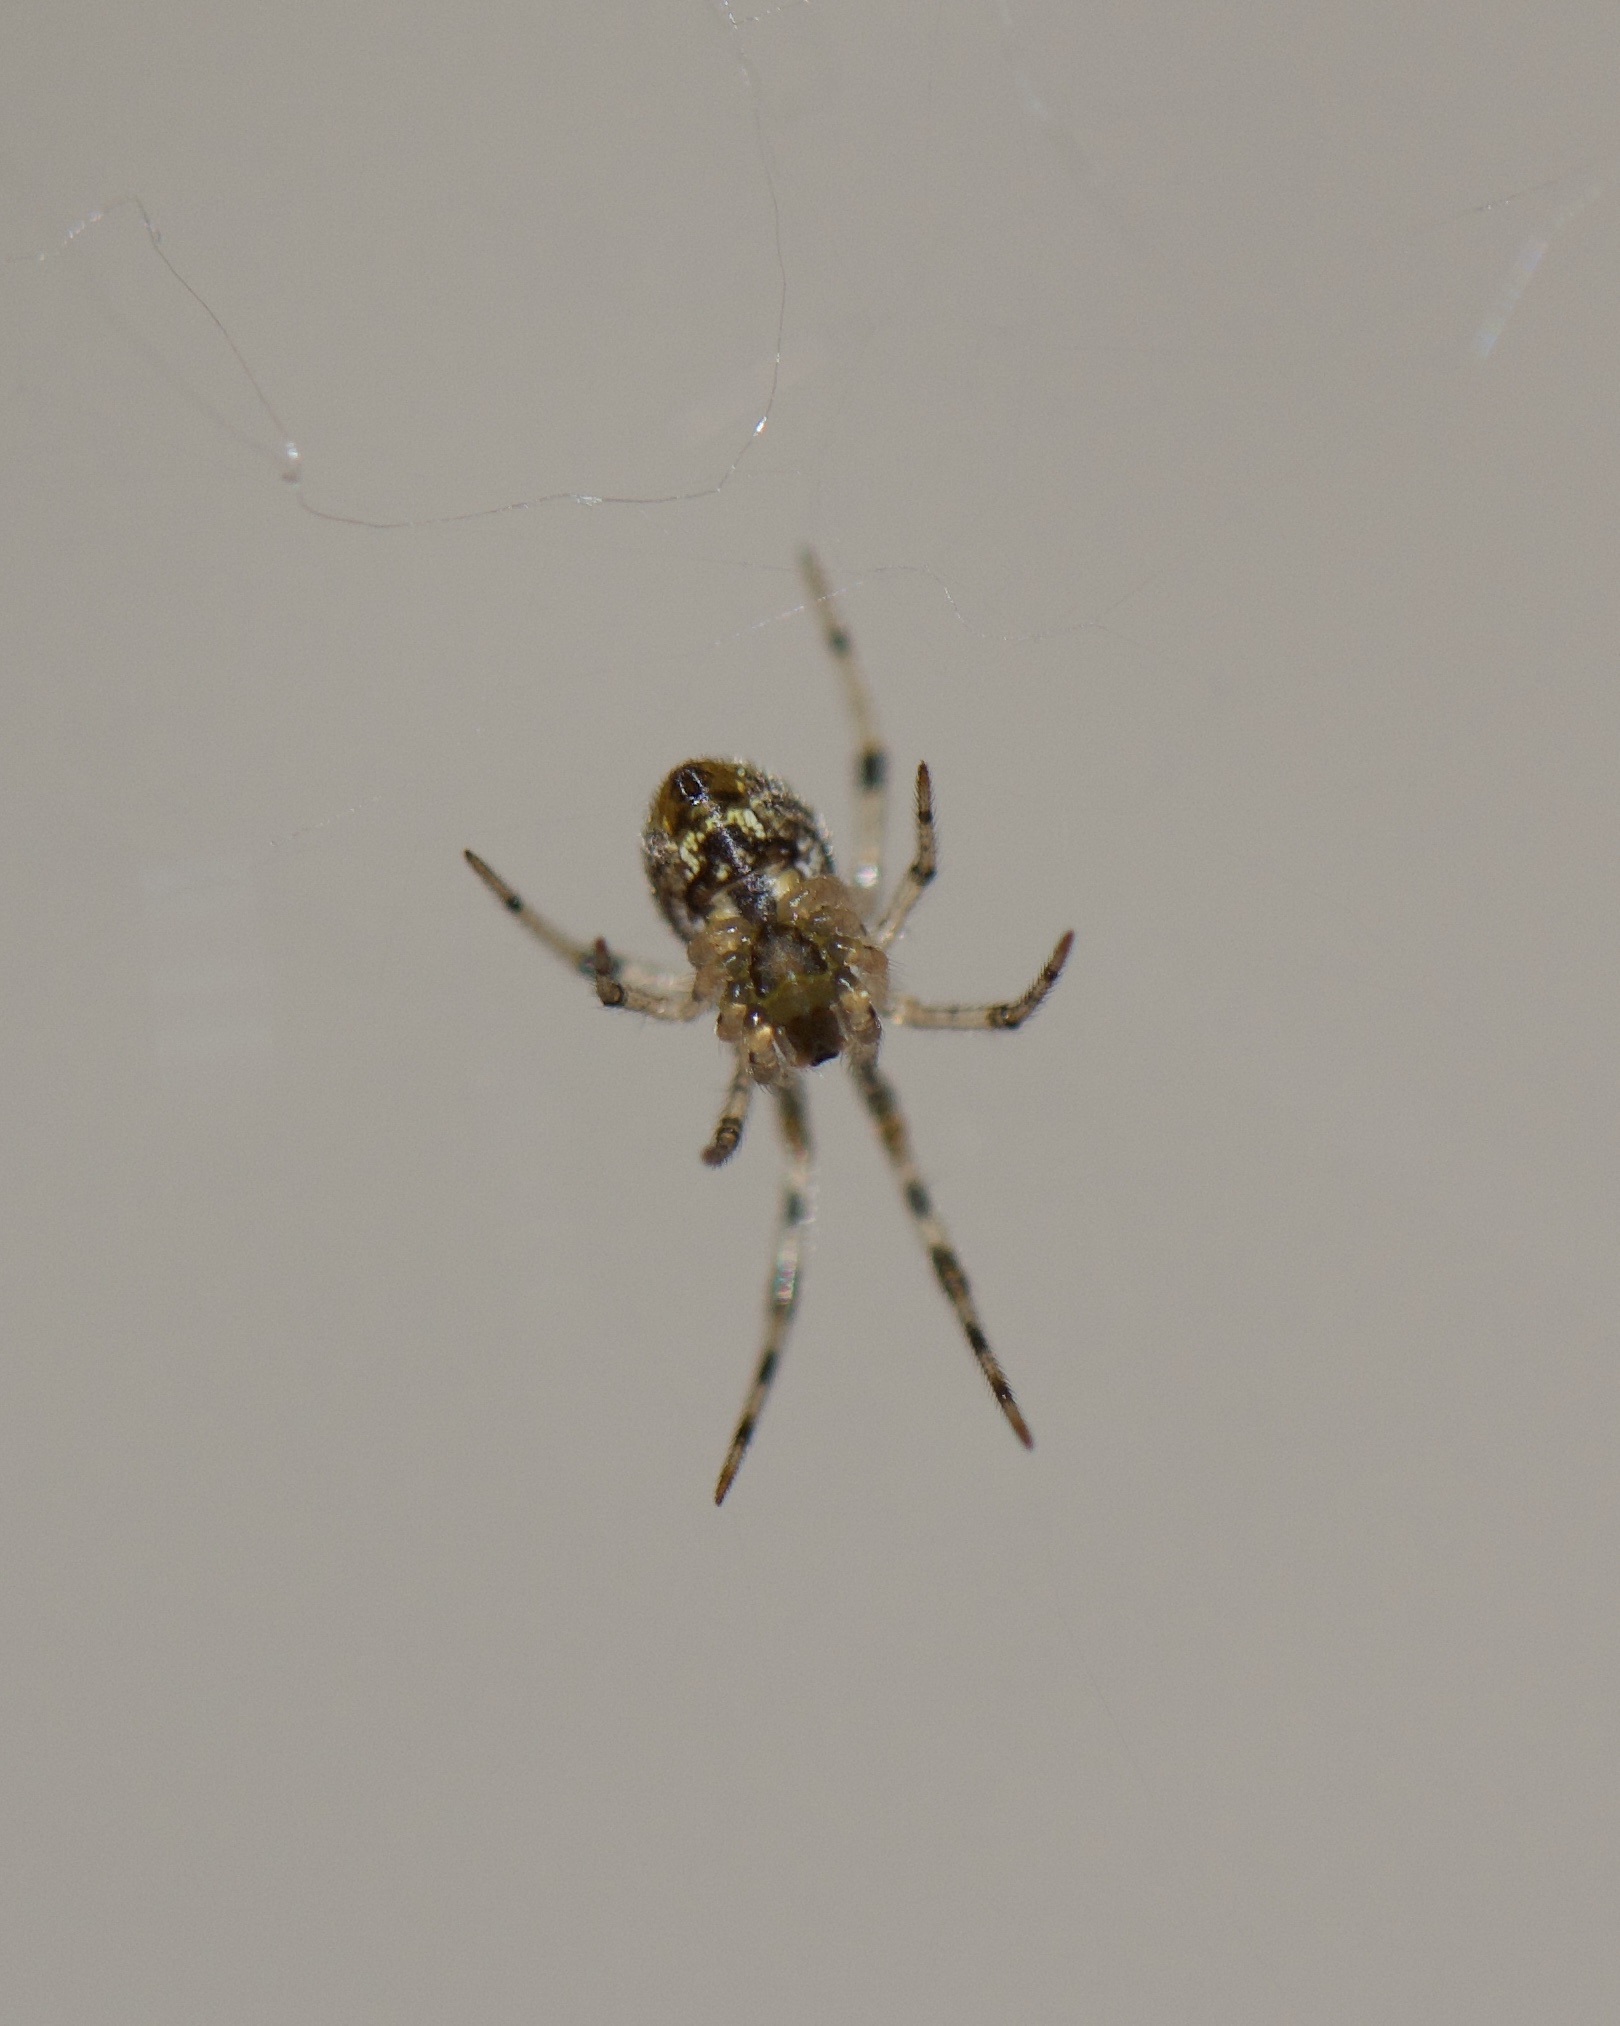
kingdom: Animalia
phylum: Arthropoda
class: Arachnida
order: Araneae
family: Theridiidae
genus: Parasteatoda
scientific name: Parasteatoda tepidariorum
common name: Common house spider
